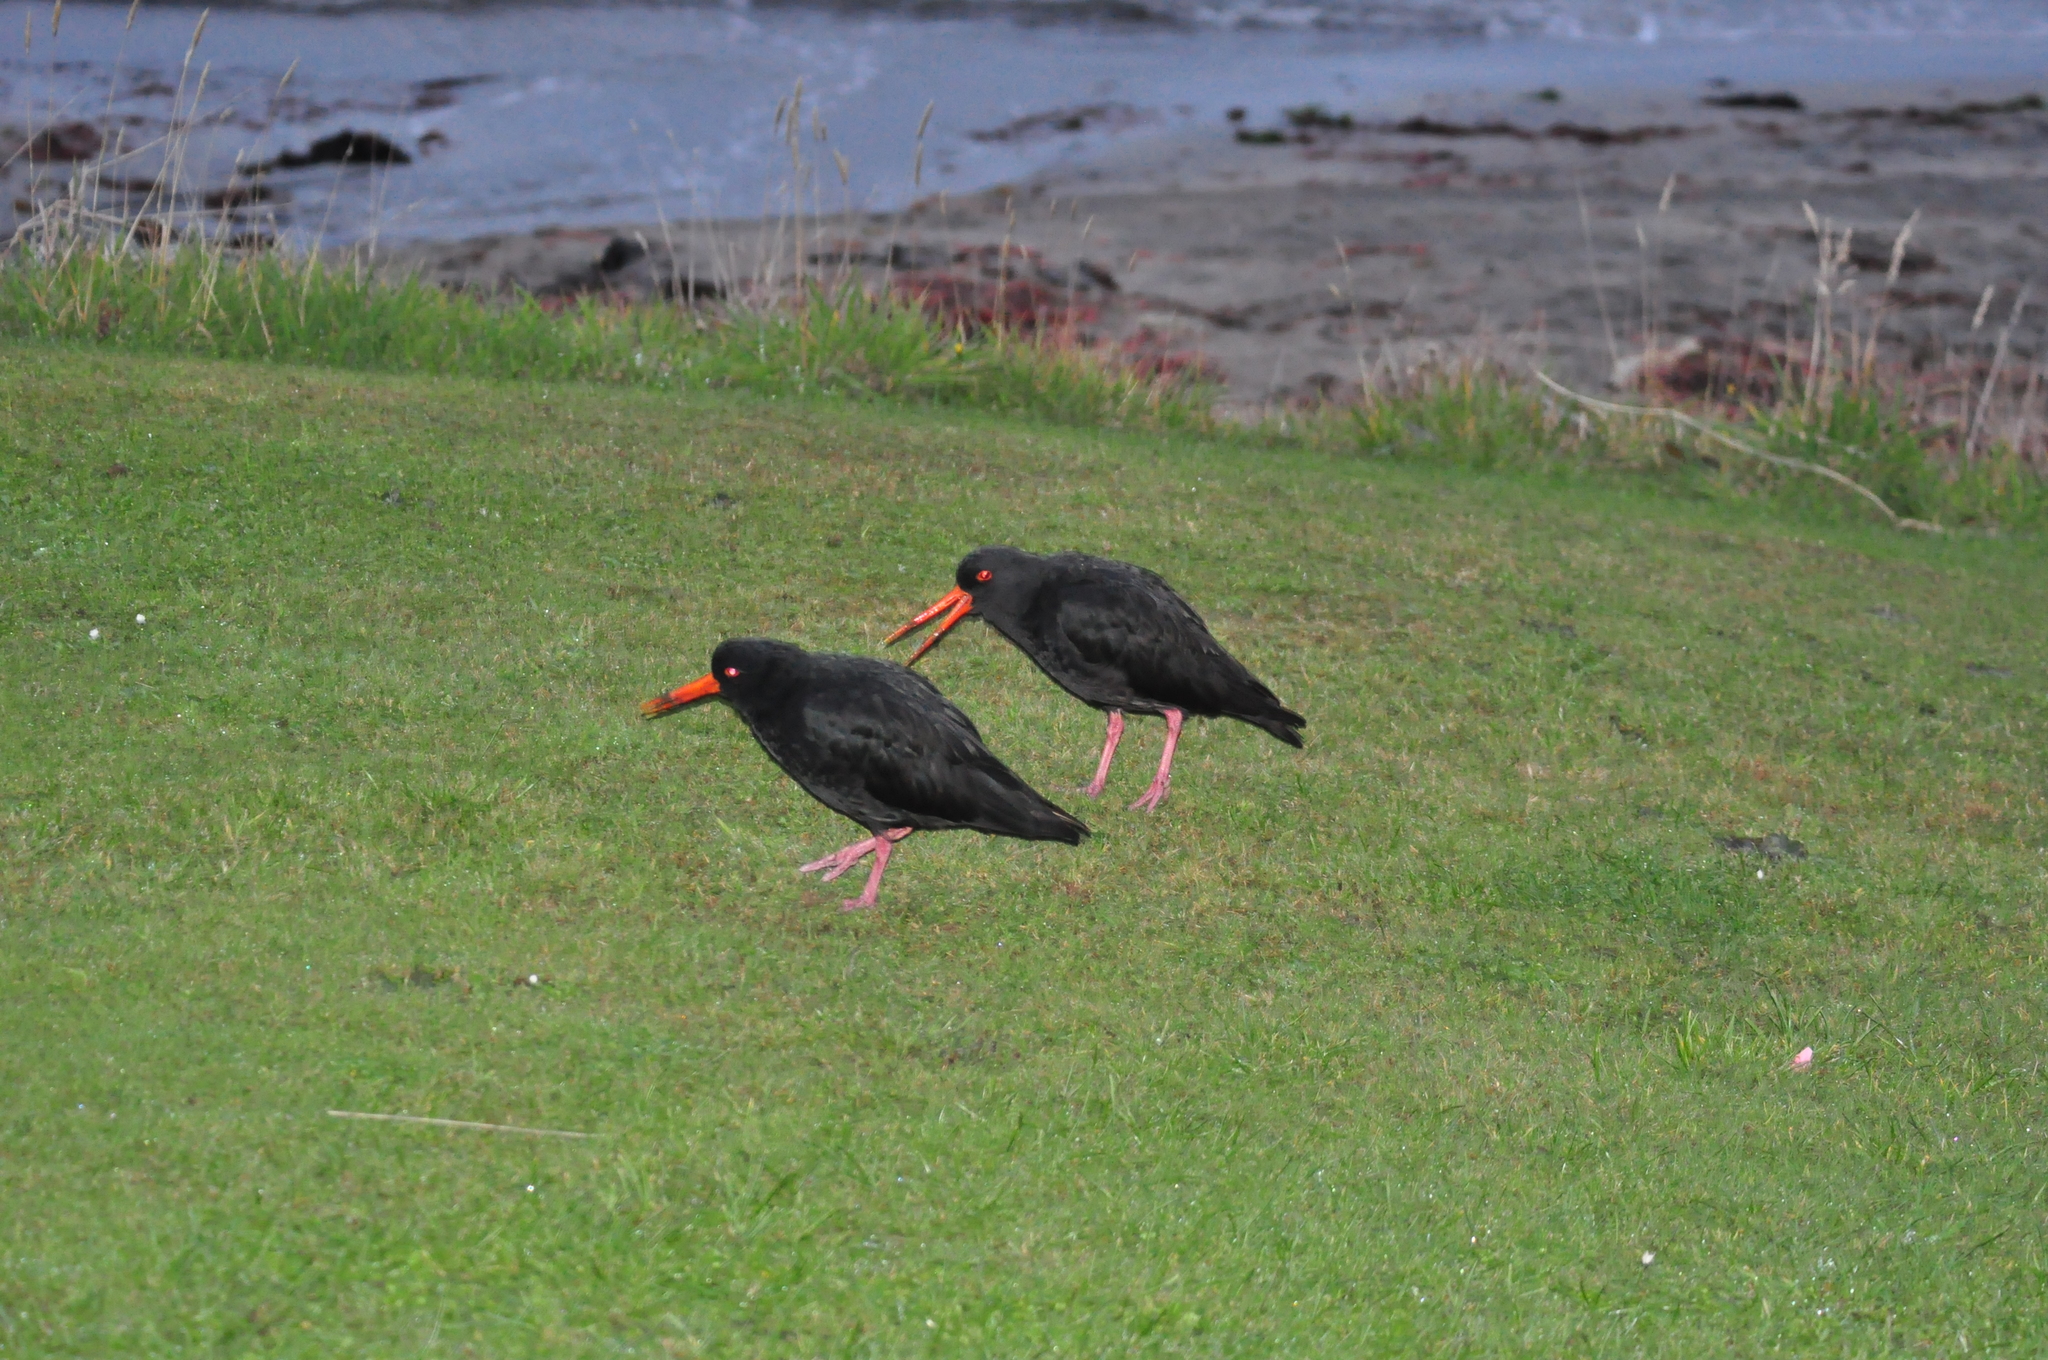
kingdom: Animalia
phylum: Chordata
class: Aves
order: Charadriiformes
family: Haematopodidae
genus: Haematopus
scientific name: Haematopus unicolor
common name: Variable oystercatcher
